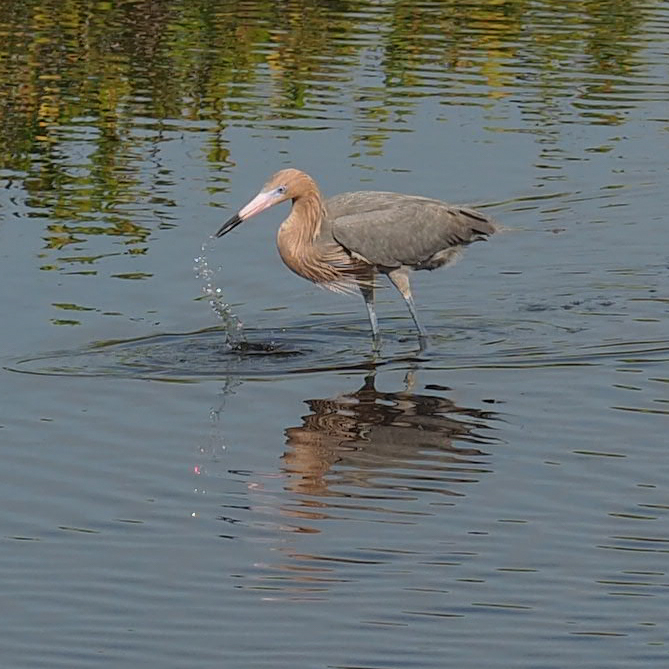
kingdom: Animalia
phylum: Chordata
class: Aves
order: Pelecaniformes
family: Ardeidae
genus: Egretta
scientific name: Egretta rufescens
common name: Reddish egret
